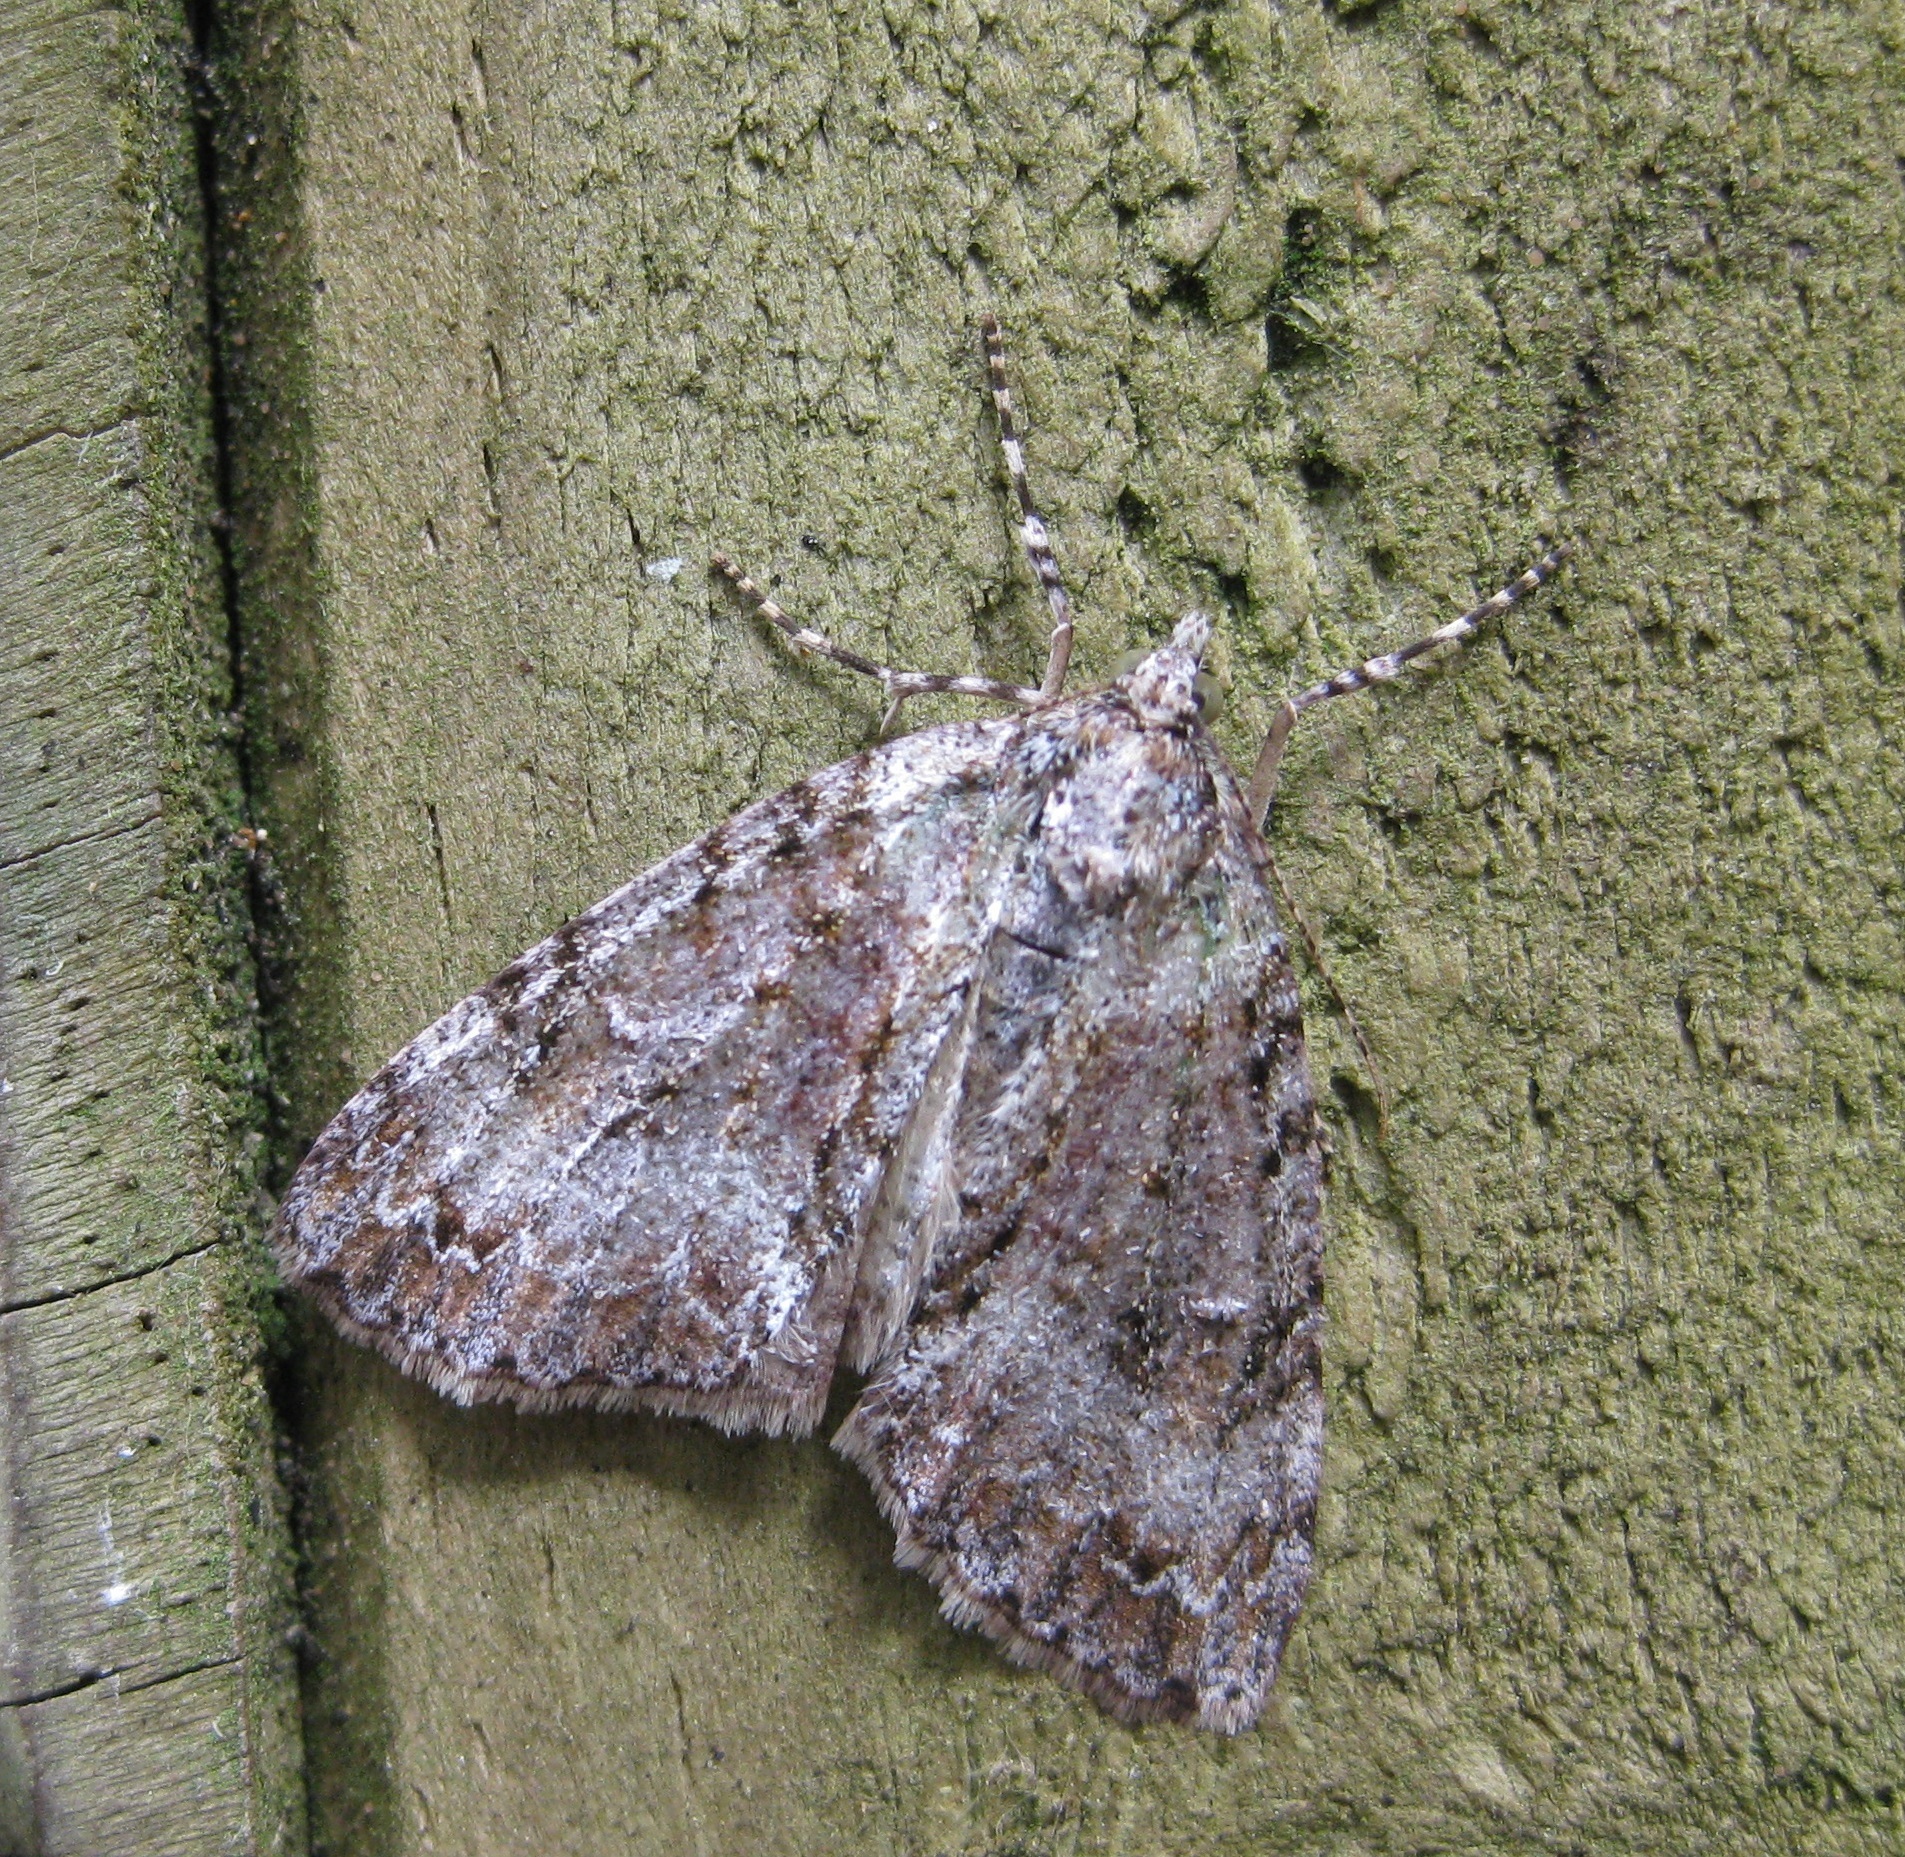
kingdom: Animalia
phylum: Arthropoda
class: Insecta
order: Lepidoptera
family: Geometridae
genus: Pseudocoremia
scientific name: Pseudocoremia suavis
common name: Common forest looper
